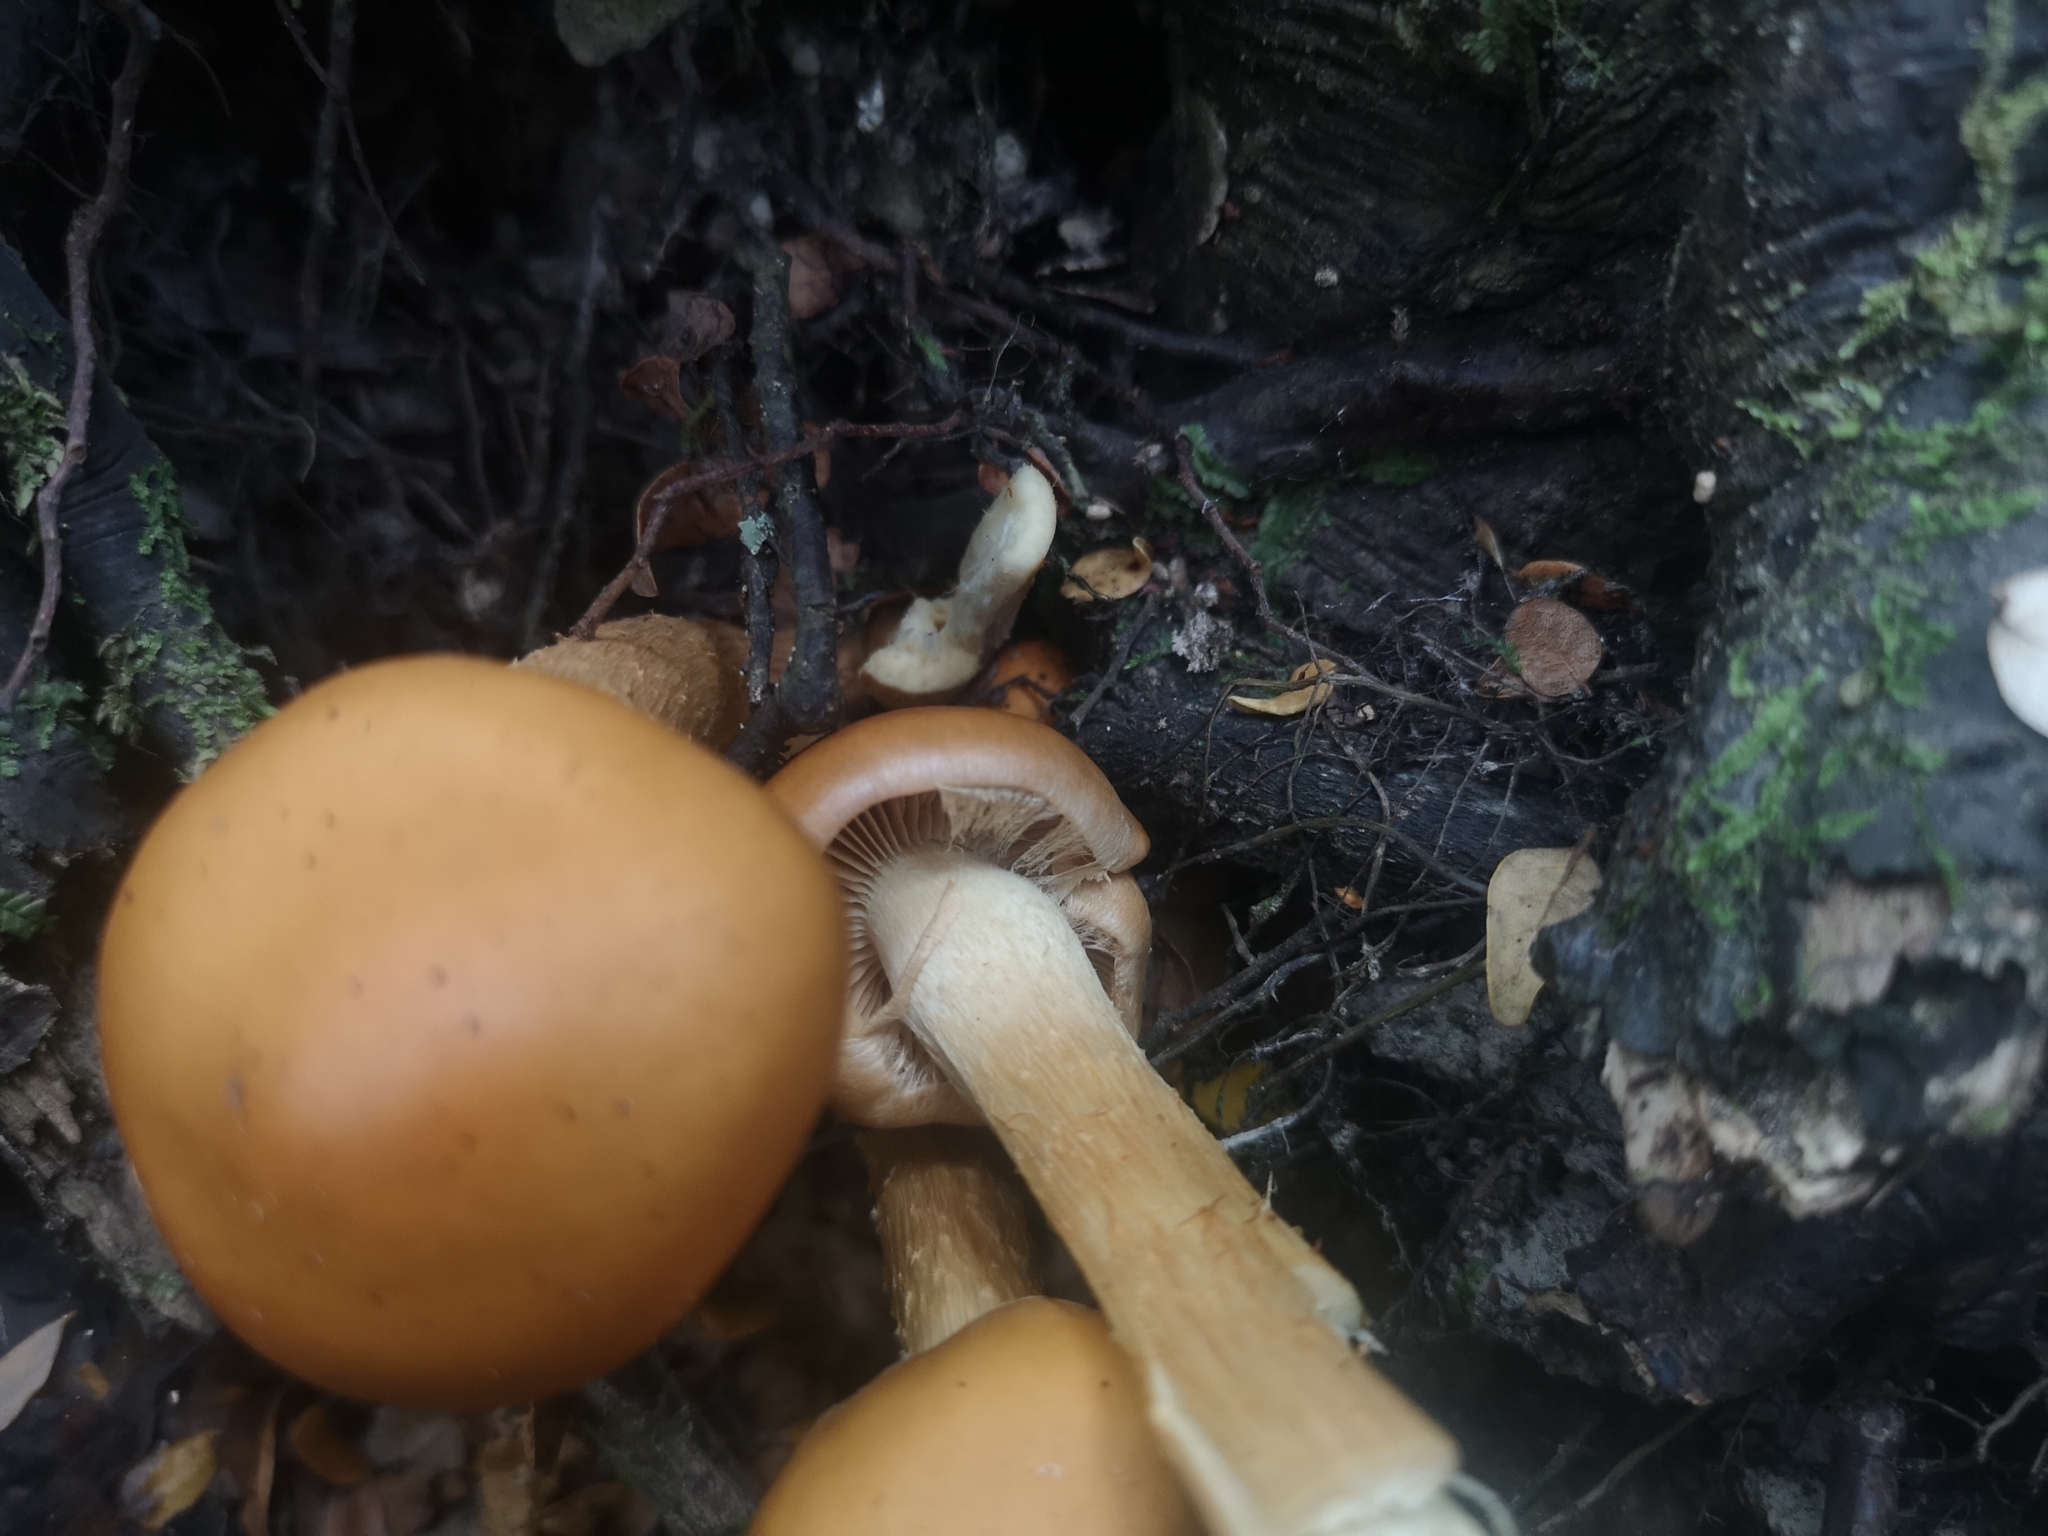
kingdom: Fungi
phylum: Basidiomycota
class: Agaricomycetes
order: Agaricales
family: Hymenogastraceae
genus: Galerina
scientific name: Galerina patagonica
